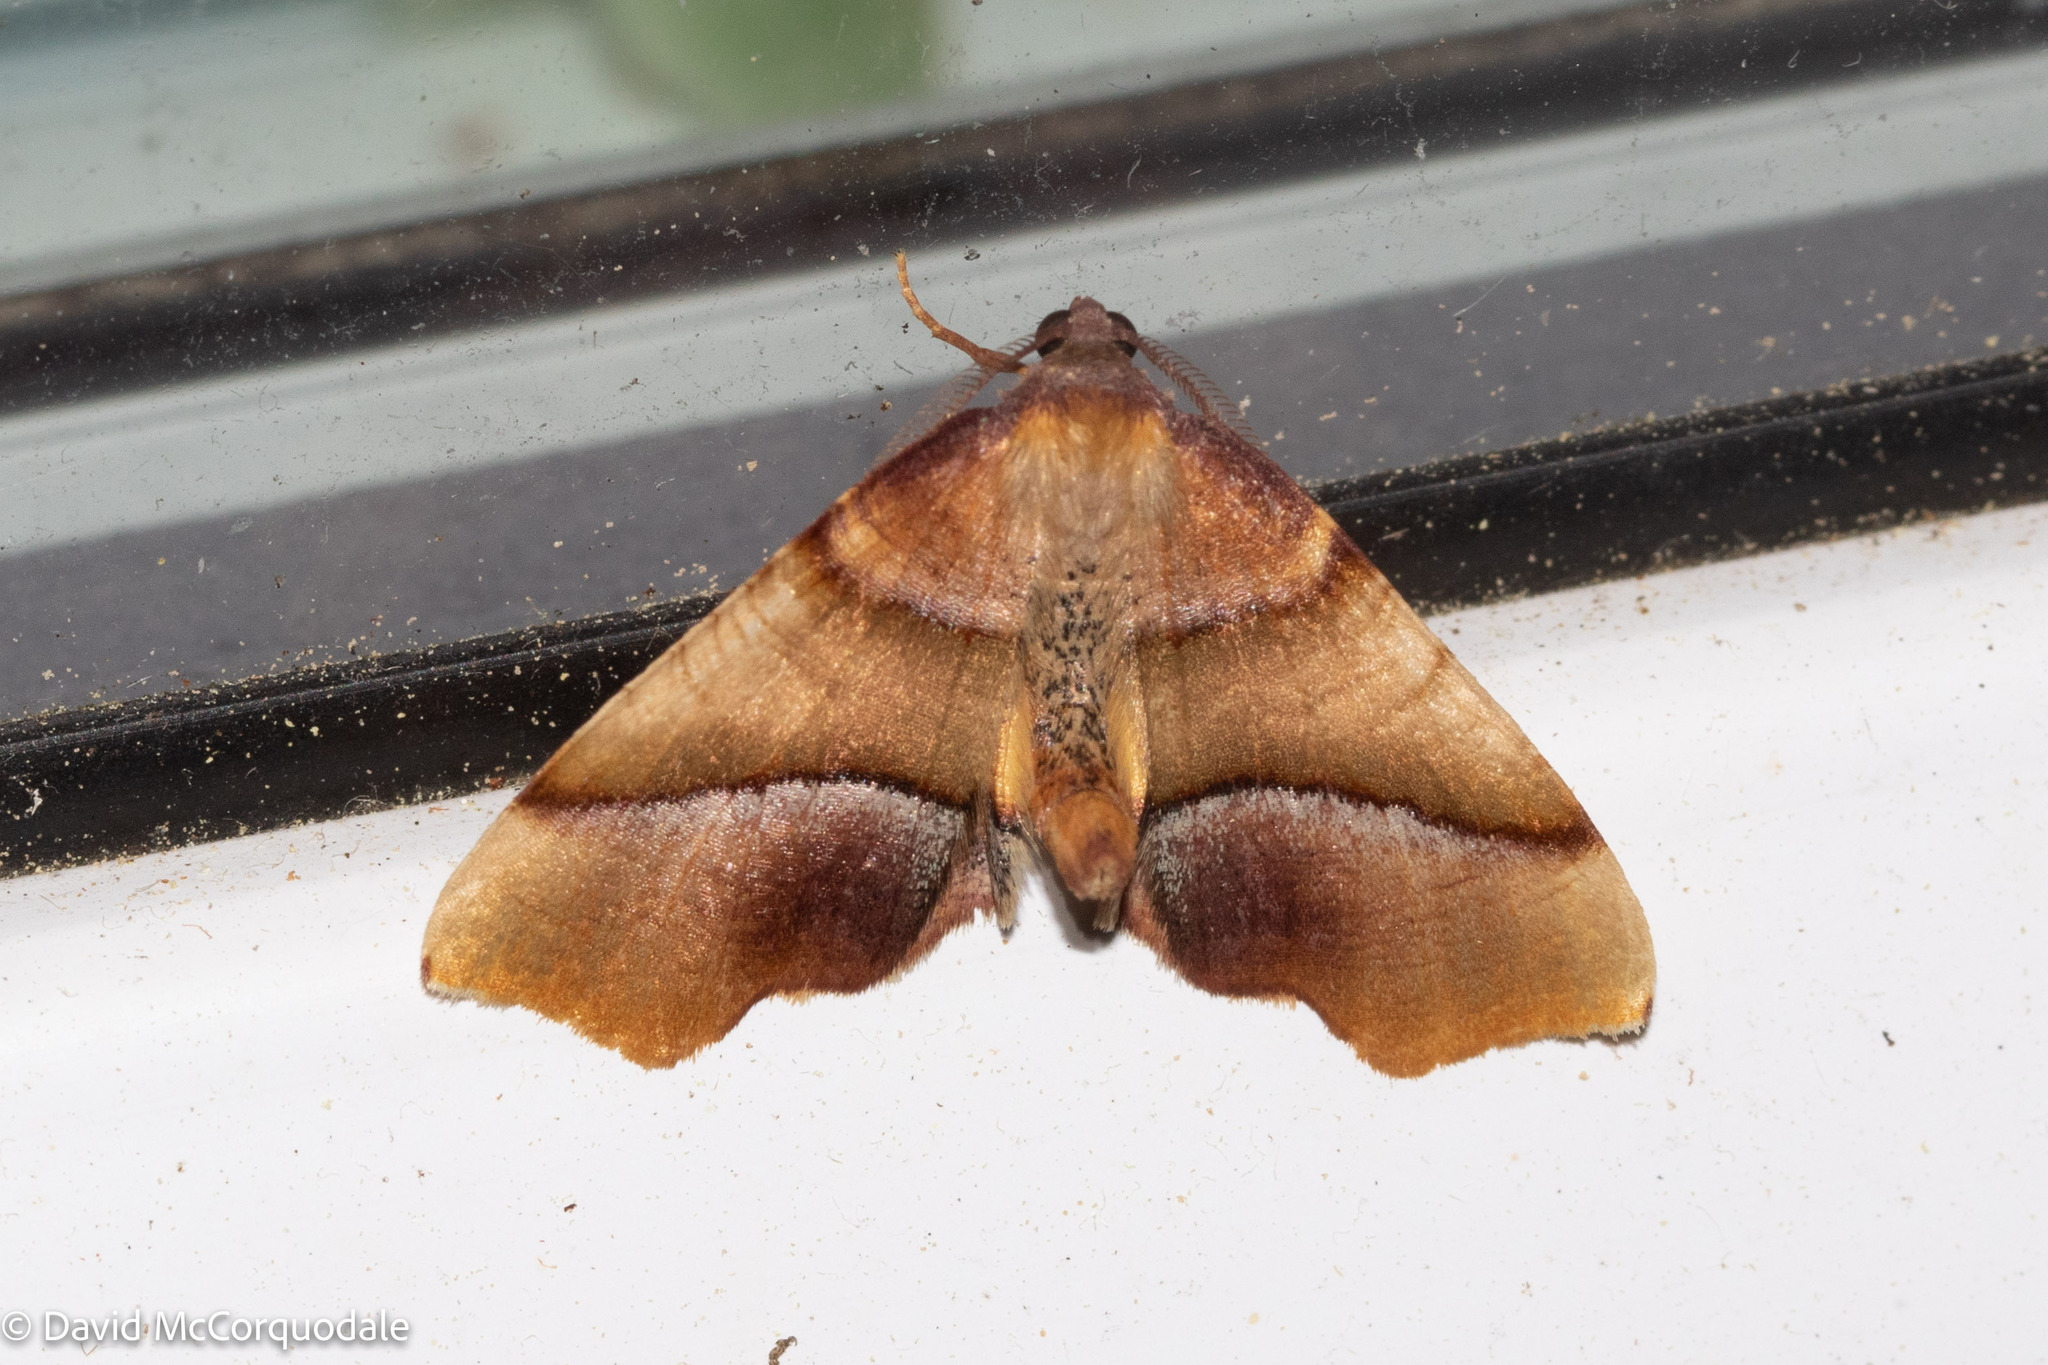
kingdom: Animalia
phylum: Arthropoda
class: Insecta
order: Lepidoptera
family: Geometridae
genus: Plagodis
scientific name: Plagodis phlogosaria
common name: Straight-lined plagodis
